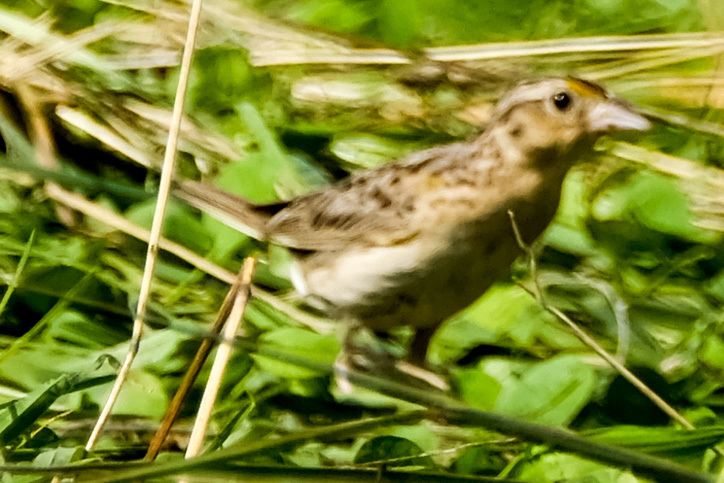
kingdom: Animalia
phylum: Chordata
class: Aves
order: Passeriformes
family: Passerellidae
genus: Ammodramus
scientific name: Ammodramus savannarum
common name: Grasshopper sparrow
